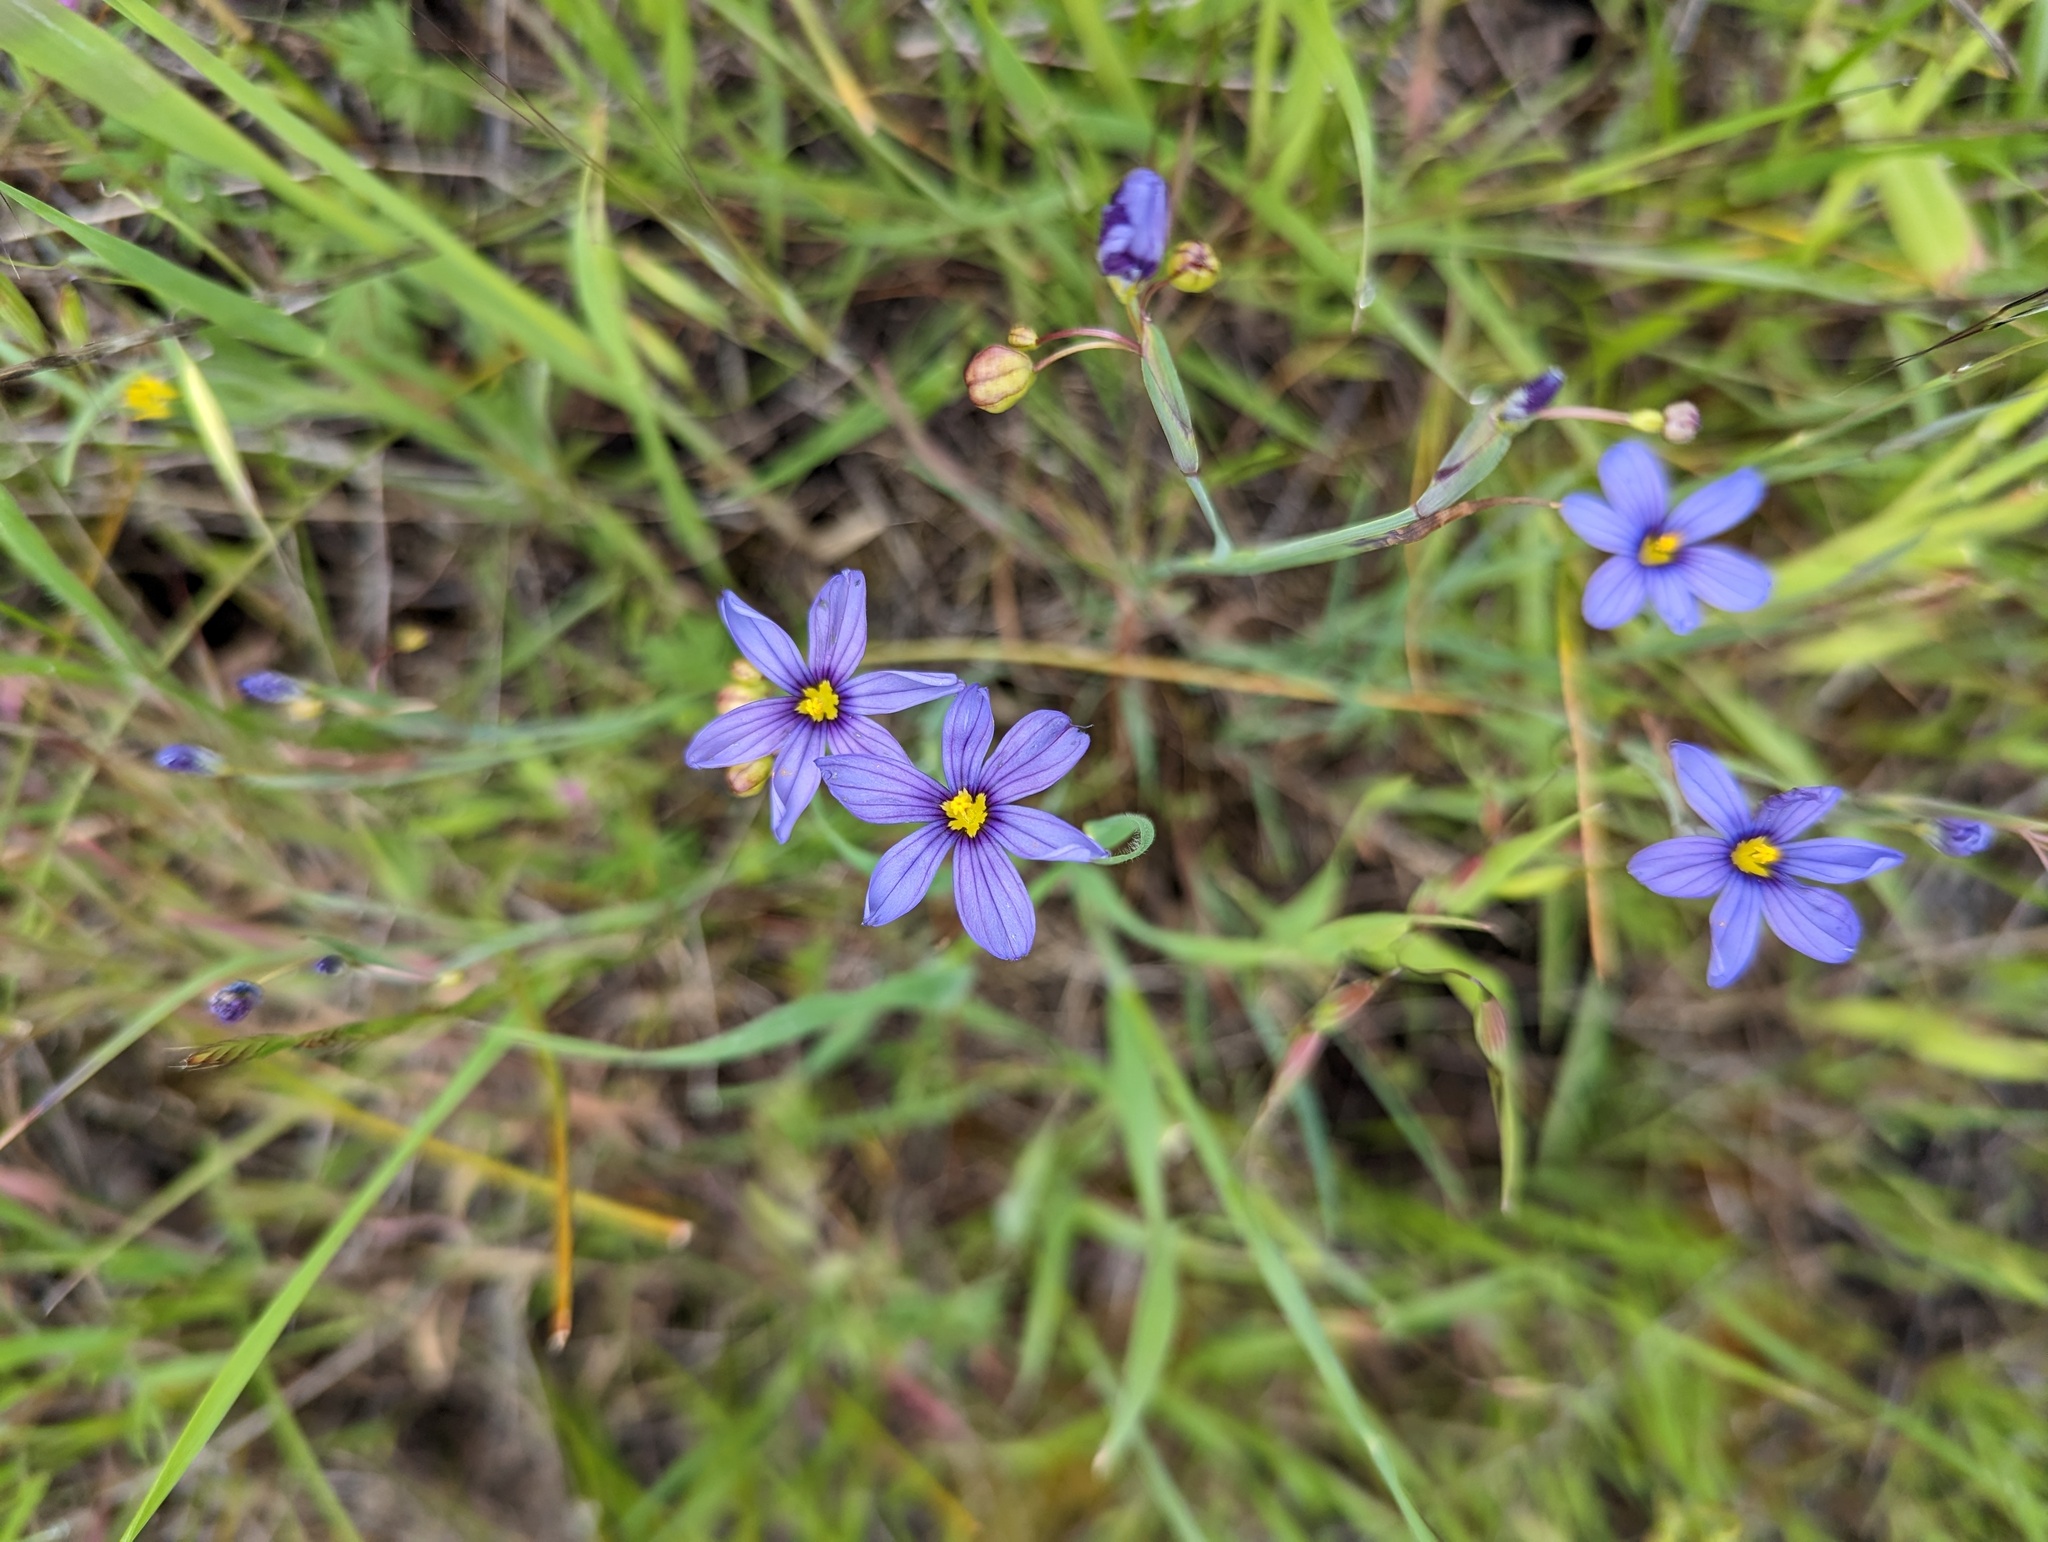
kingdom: Plantae
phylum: Tracheophyta
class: Liliopsida
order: Asparagales
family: Iridaceae
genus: Sisyrinchium
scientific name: Sisyrinchium bellum
